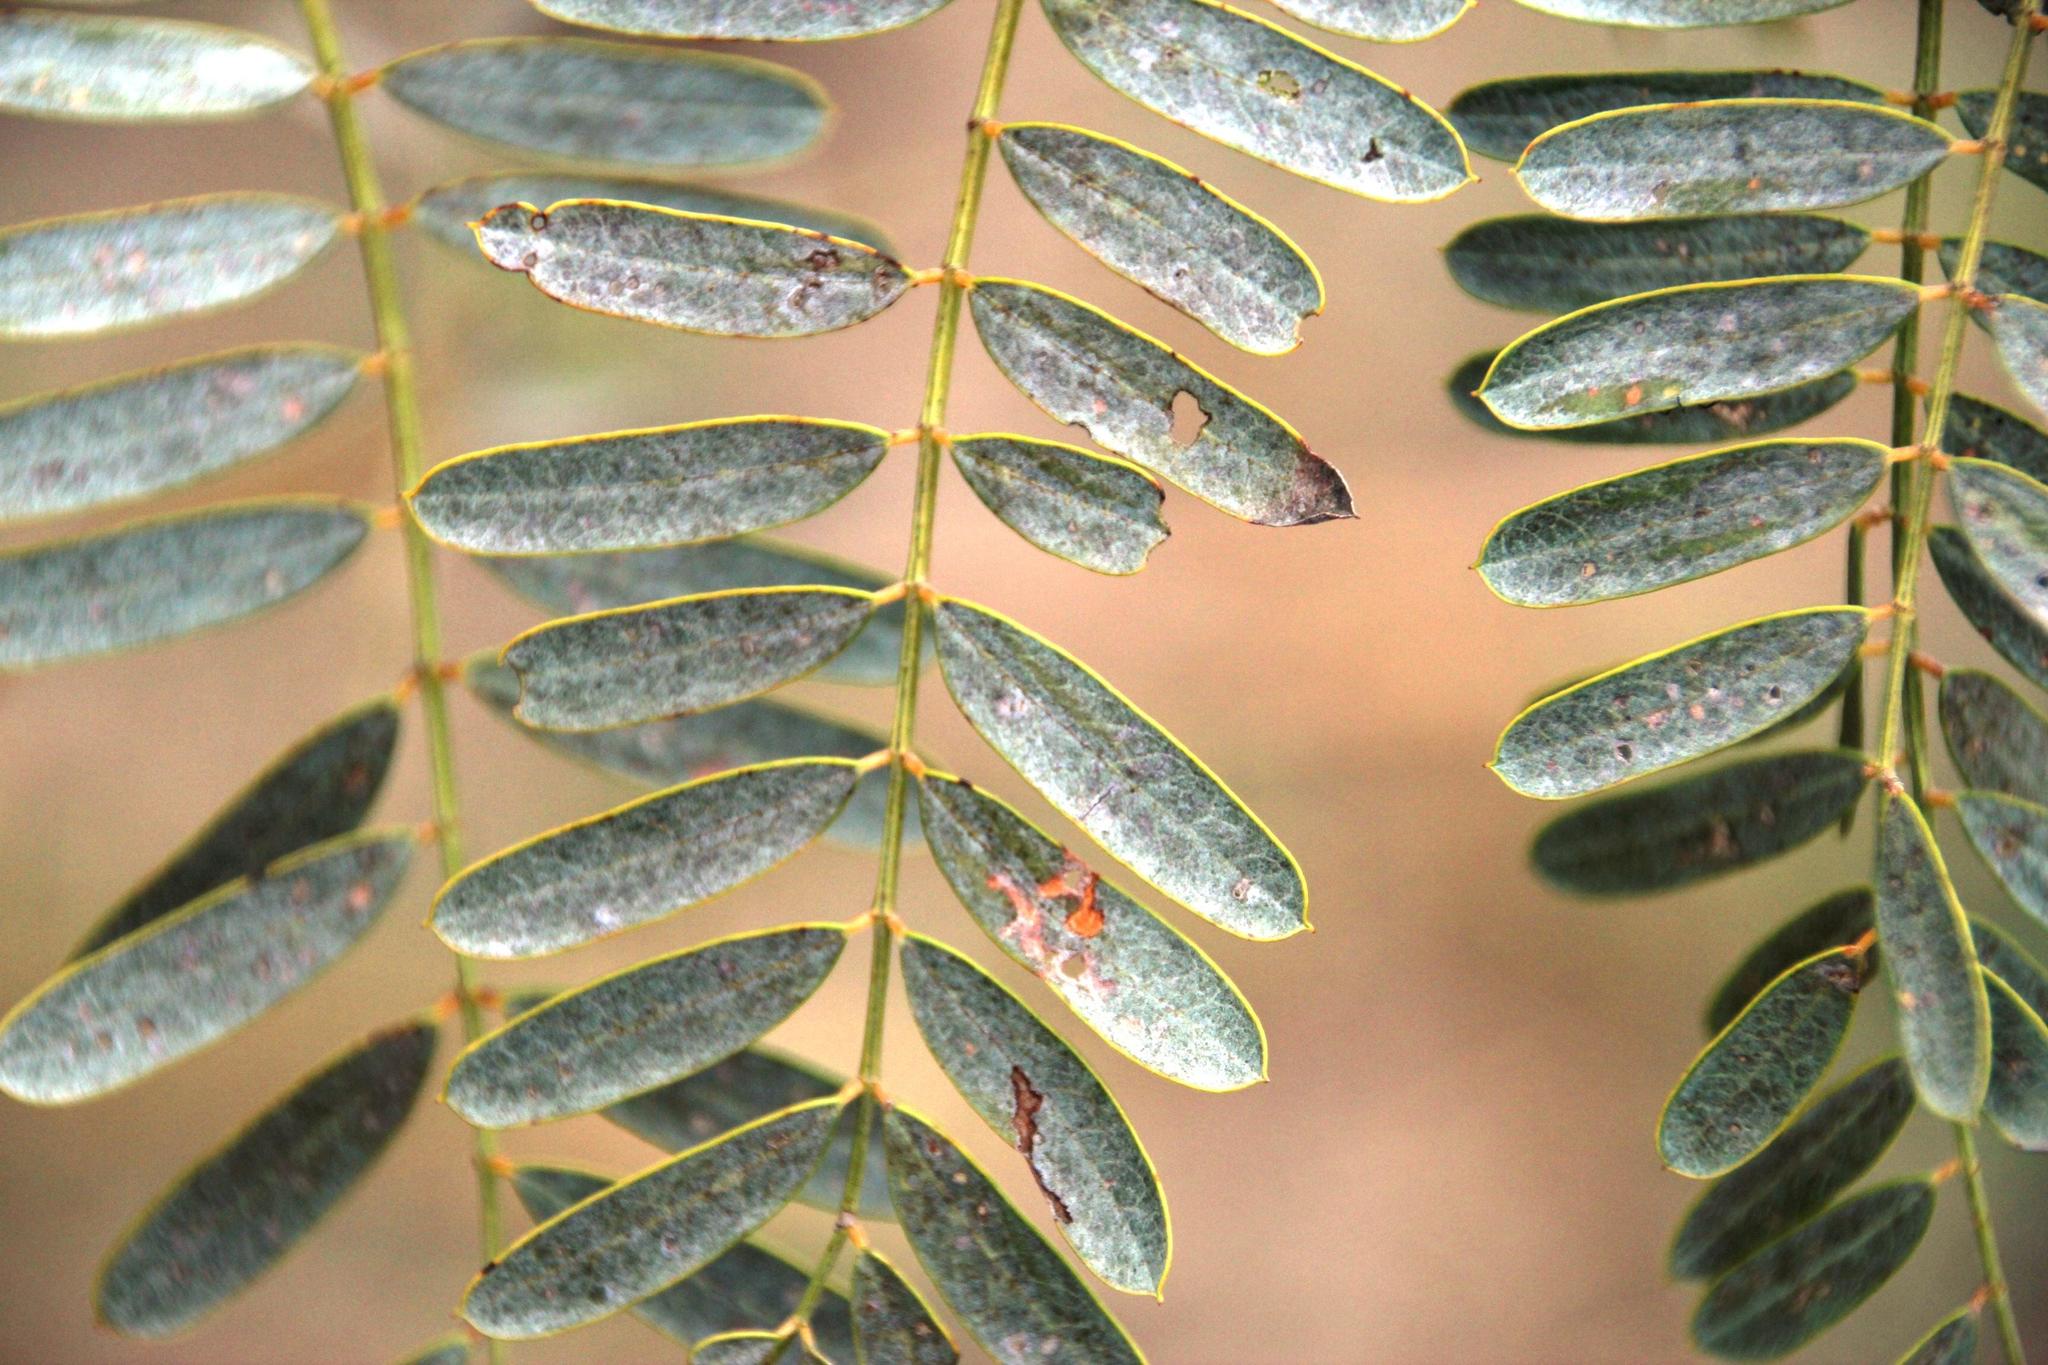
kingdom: Plantae
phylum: Tracheophyta
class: Magnoliopsida
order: Fabales
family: Fabaceae
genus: Sesbania
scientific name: Sesbania punicea
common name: Rattlebox
